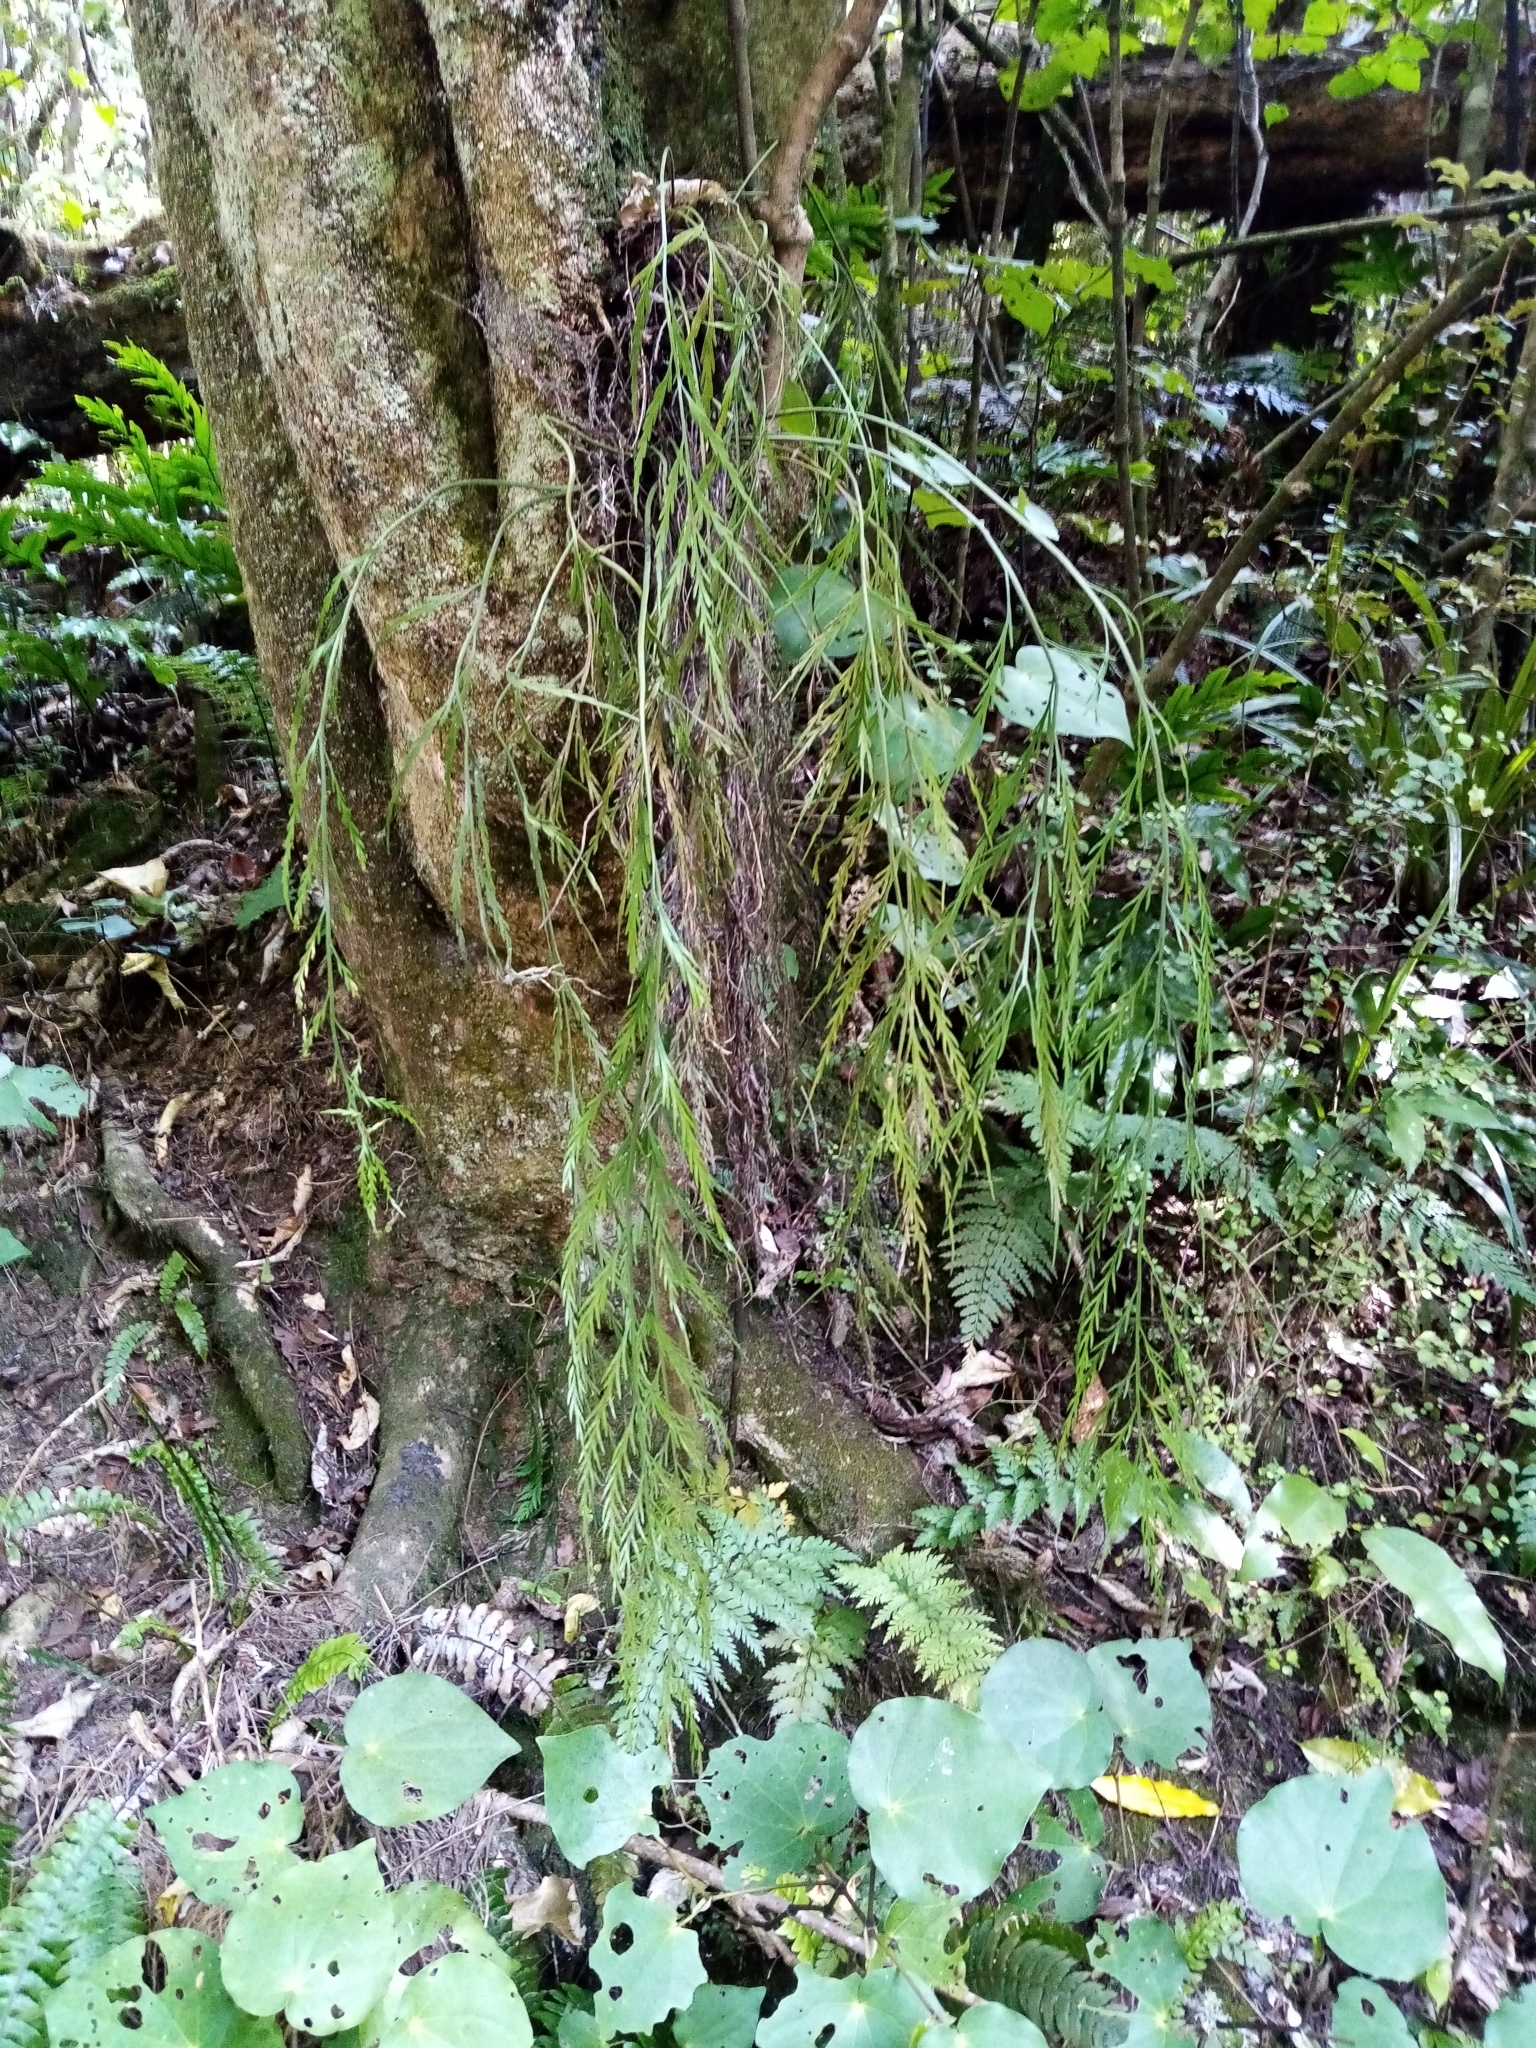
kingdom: Plantae
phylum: Tracheophyta
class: Polypodiopsida
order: Polypodiales
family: Aspleniaceae
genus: Asplenium
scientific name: Asplenium flaccidum
